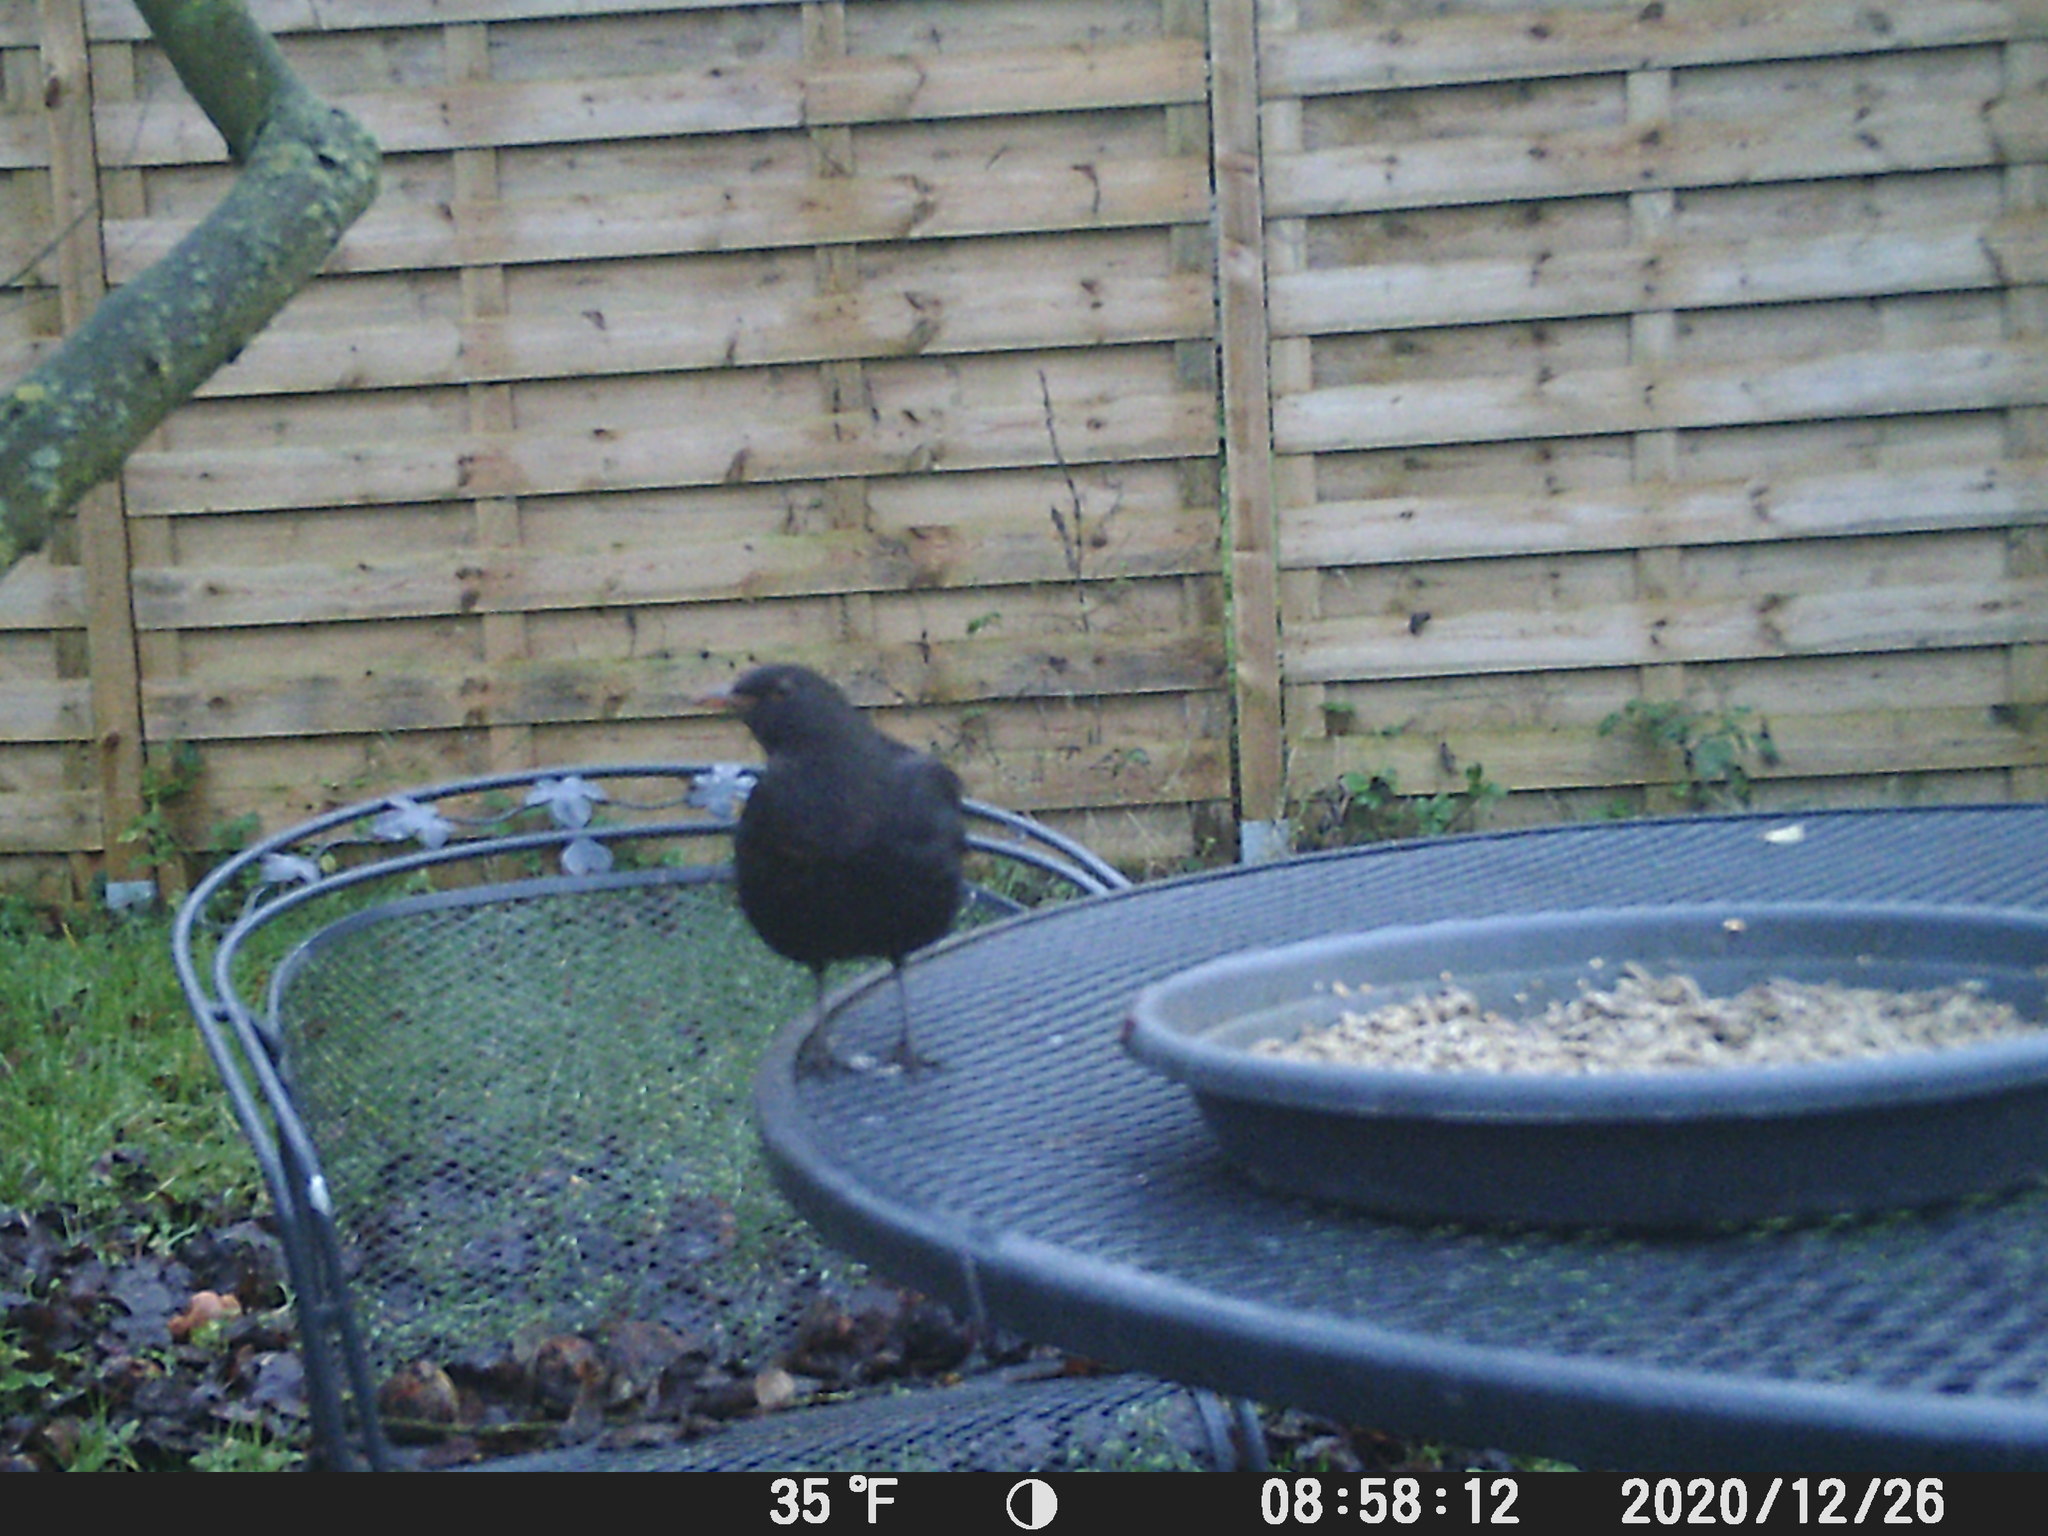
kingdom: Animalia
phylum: Chordata
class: Aves
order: Passeriformes
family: Turdidae
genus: Turdus
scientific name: Turdus merula
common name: Common blackbird
